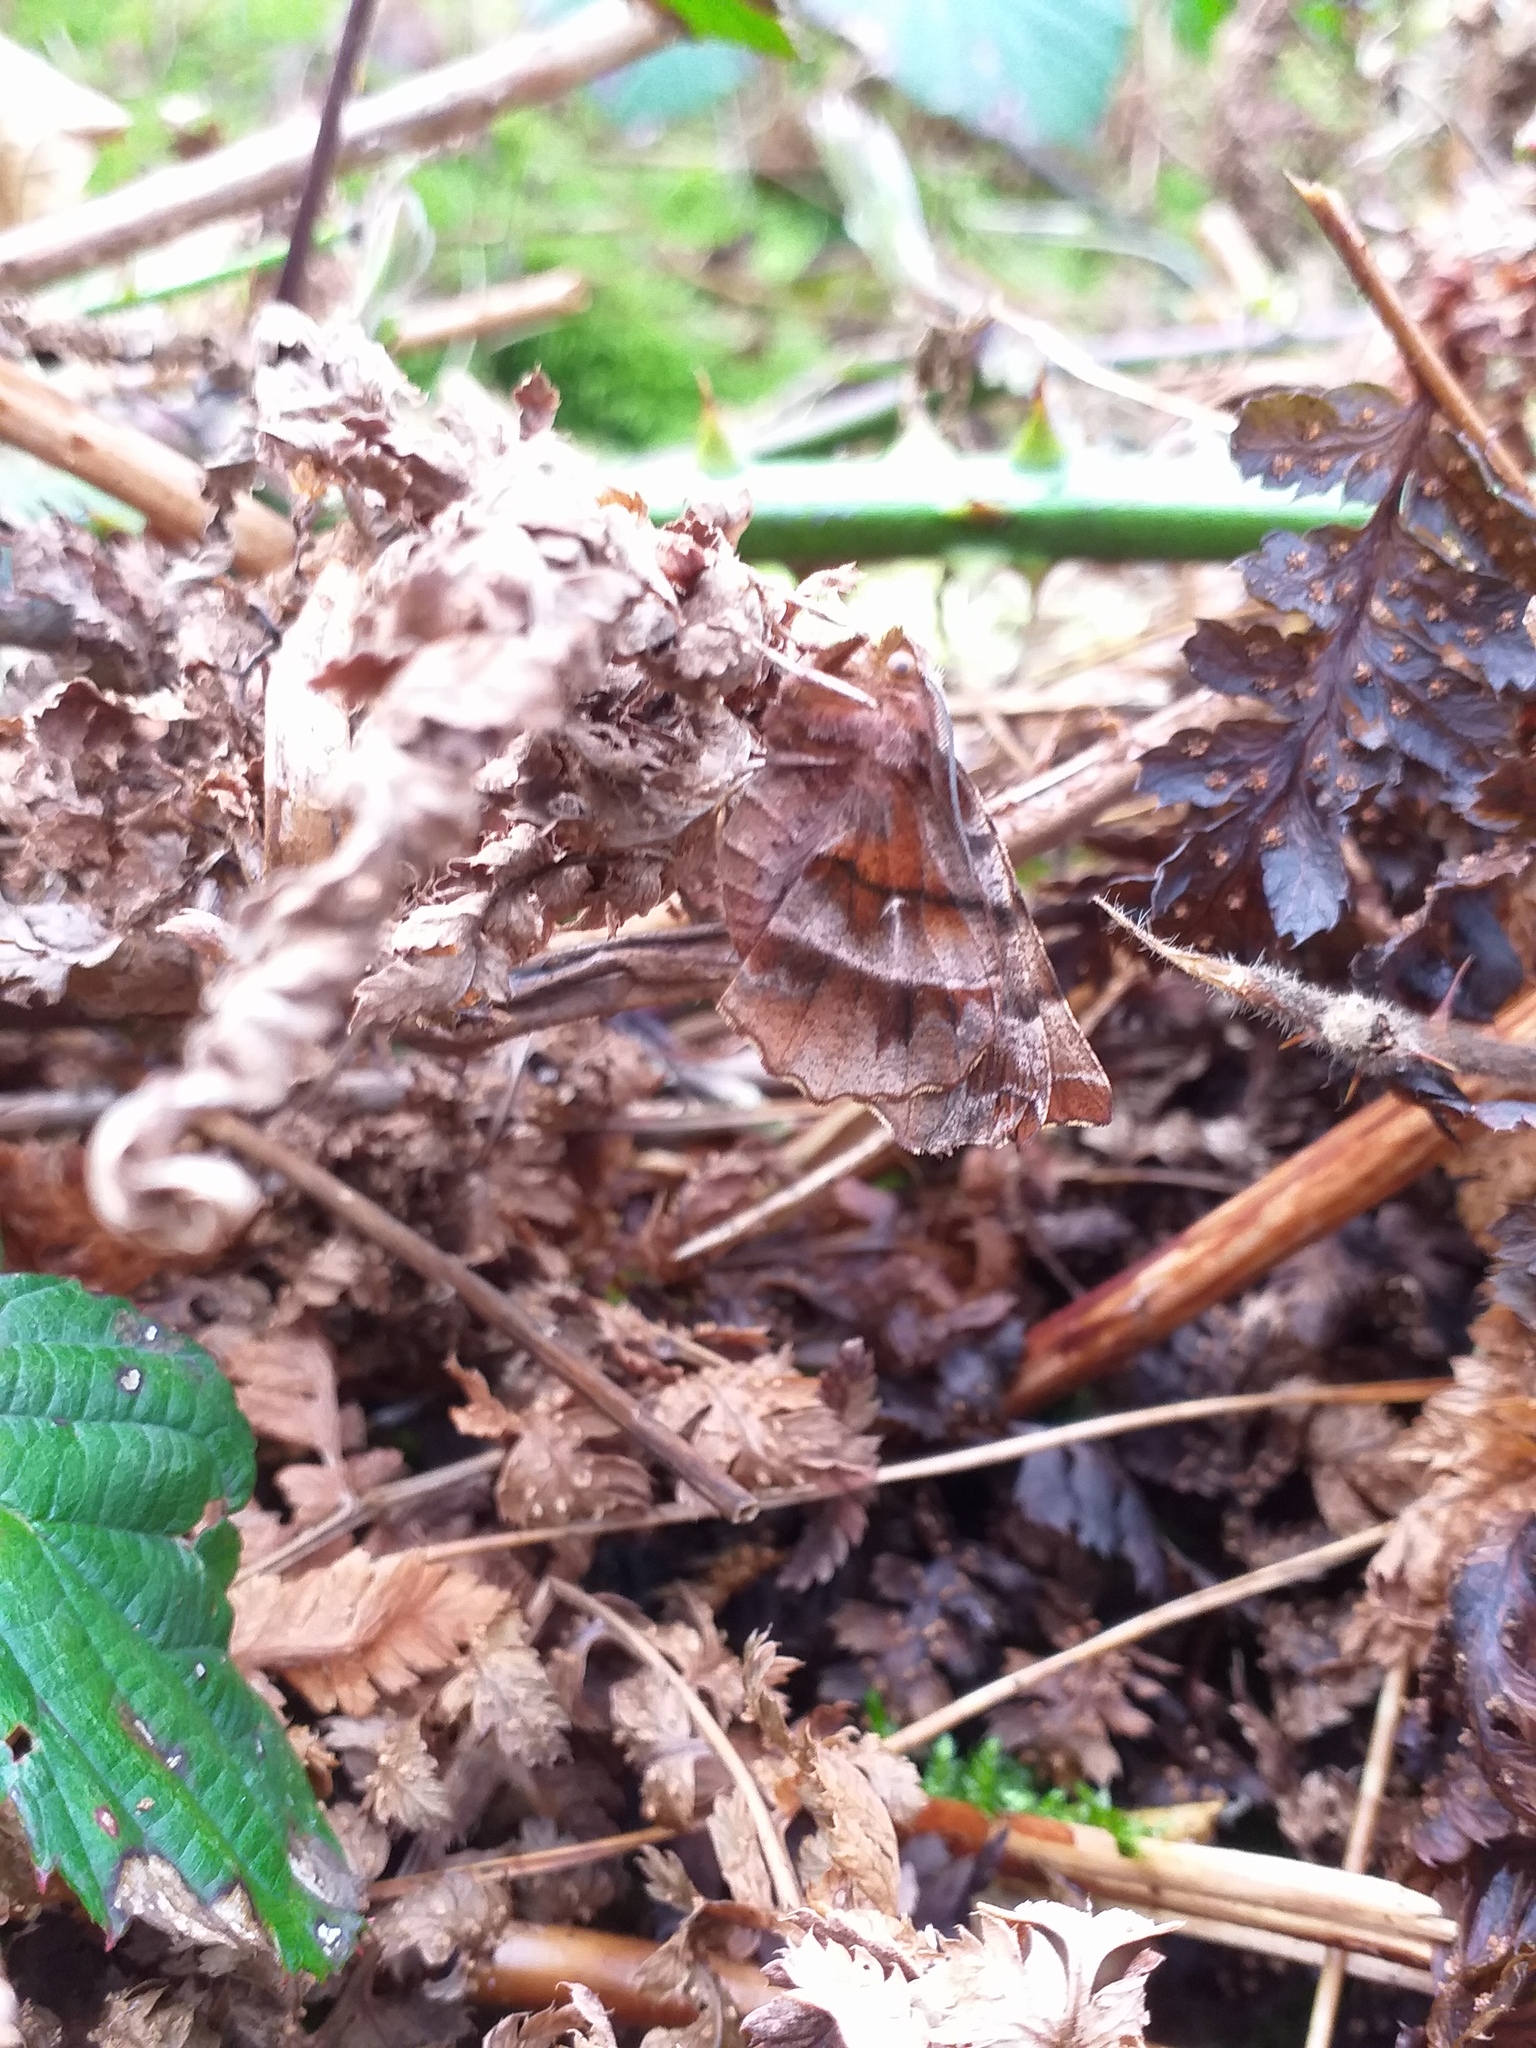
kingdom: Animalia
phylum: Arthropoda
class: Insecta
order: Lepidoptera
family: Geometridae
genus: Selenia
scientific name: Selenia dentaria
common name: Early thorn
